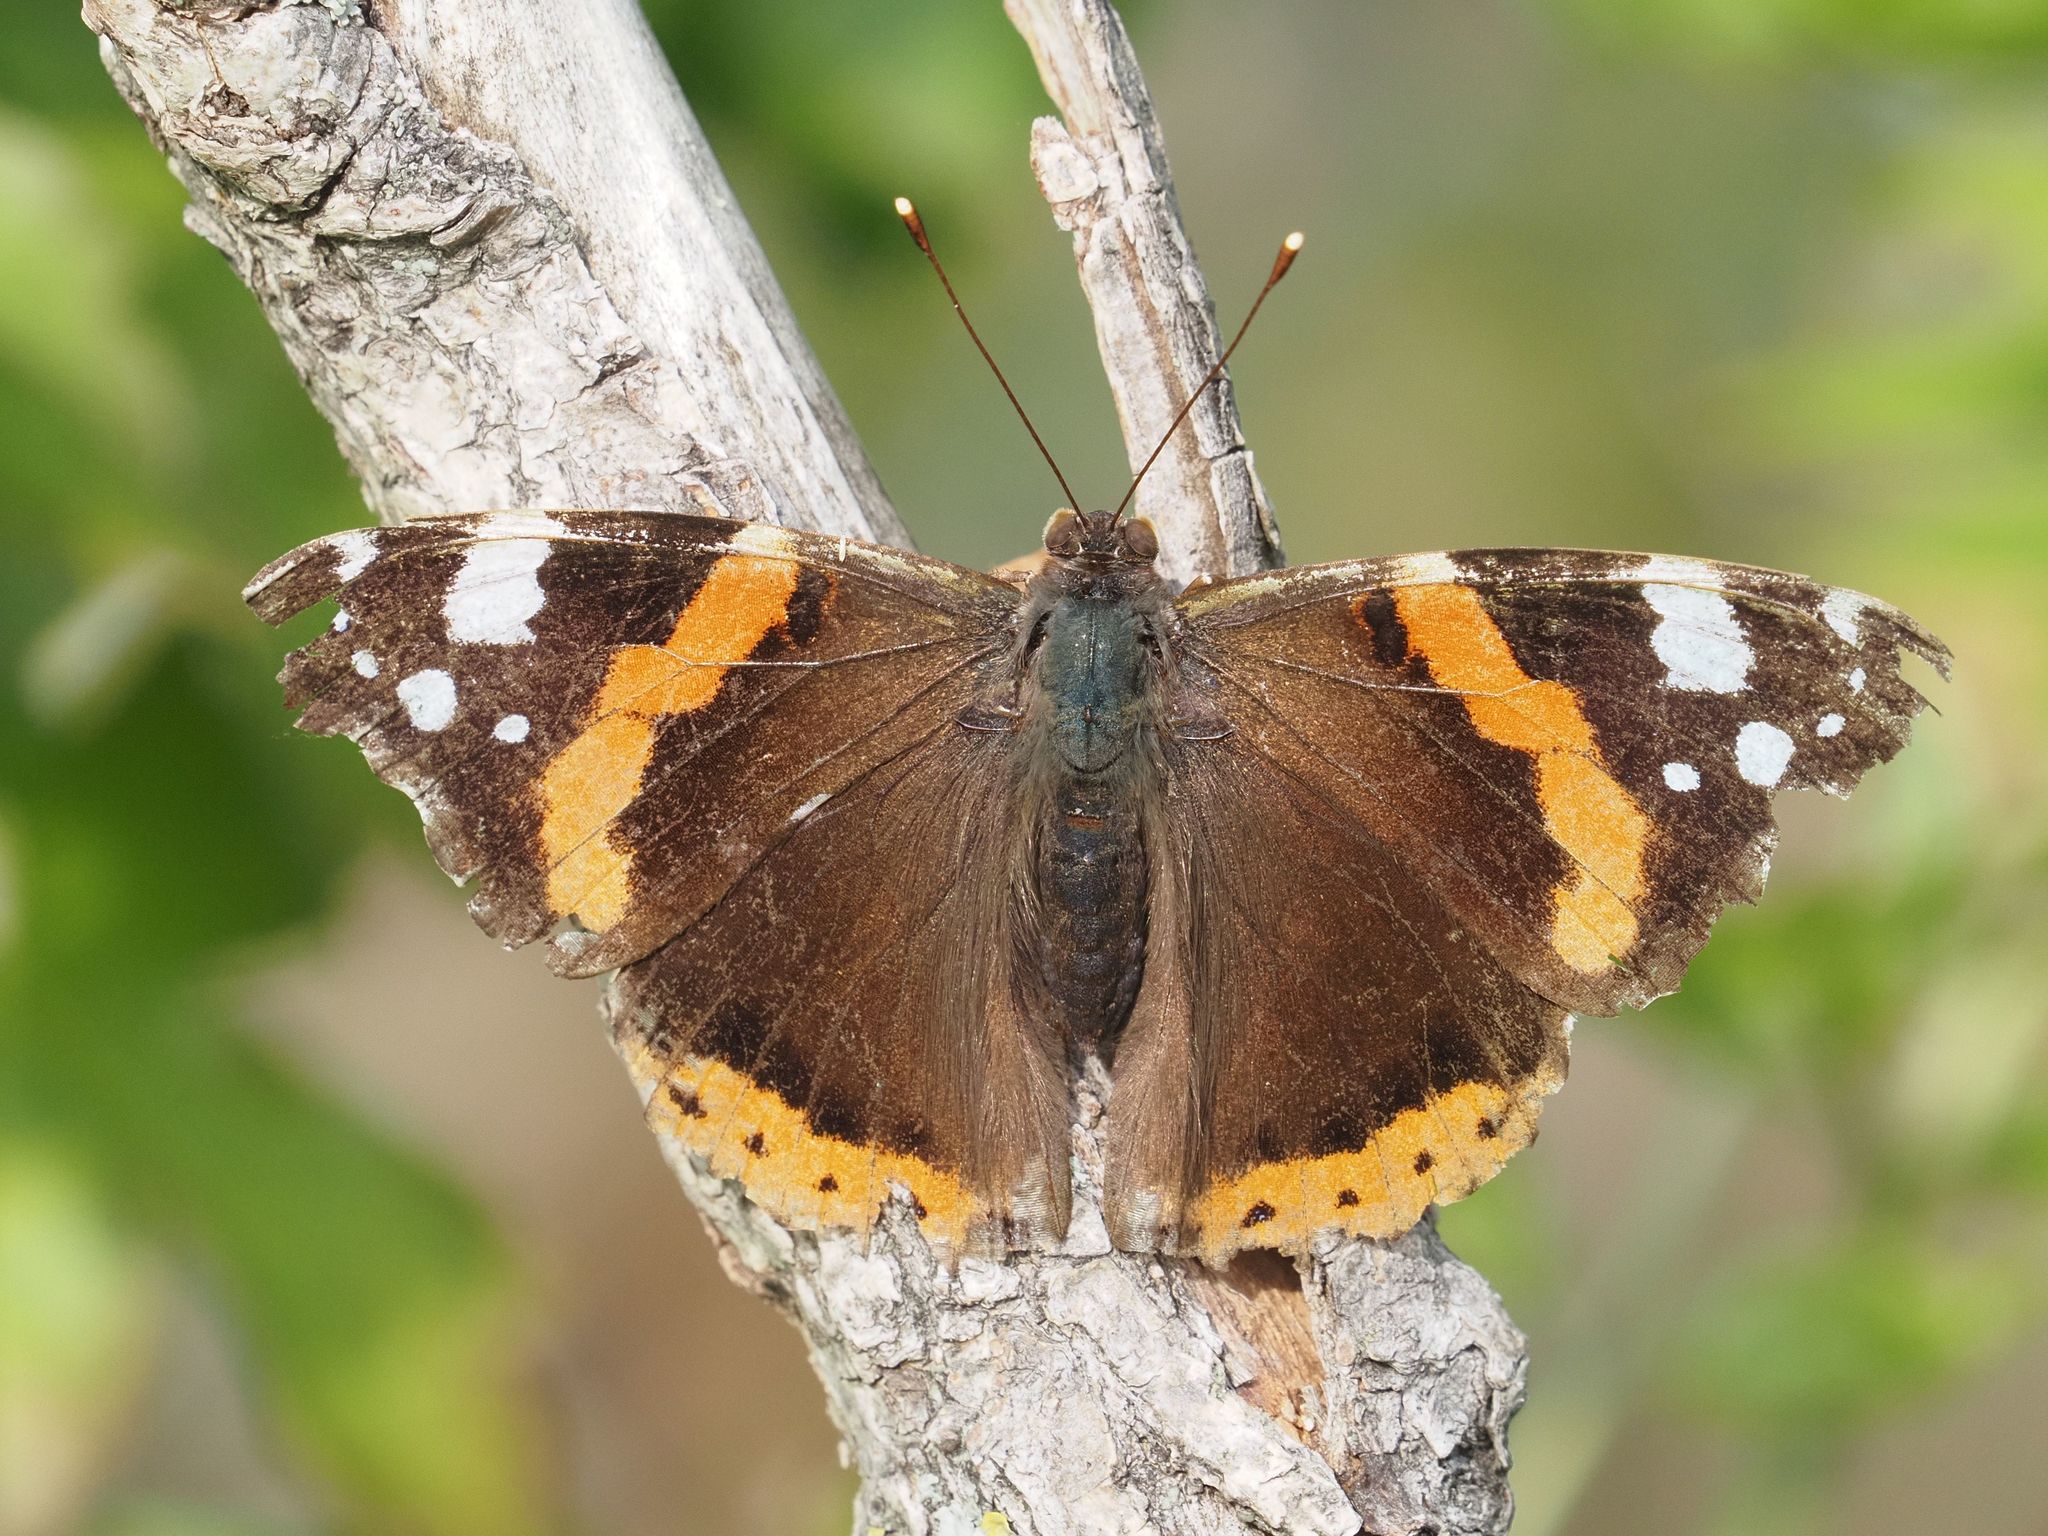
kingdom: Animalia
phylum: Arthropoda
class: Insecta
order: Lepidoptera
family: Nymphalidae
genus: Vanessa
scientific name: Vanessa atalanta
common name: Red admiral
